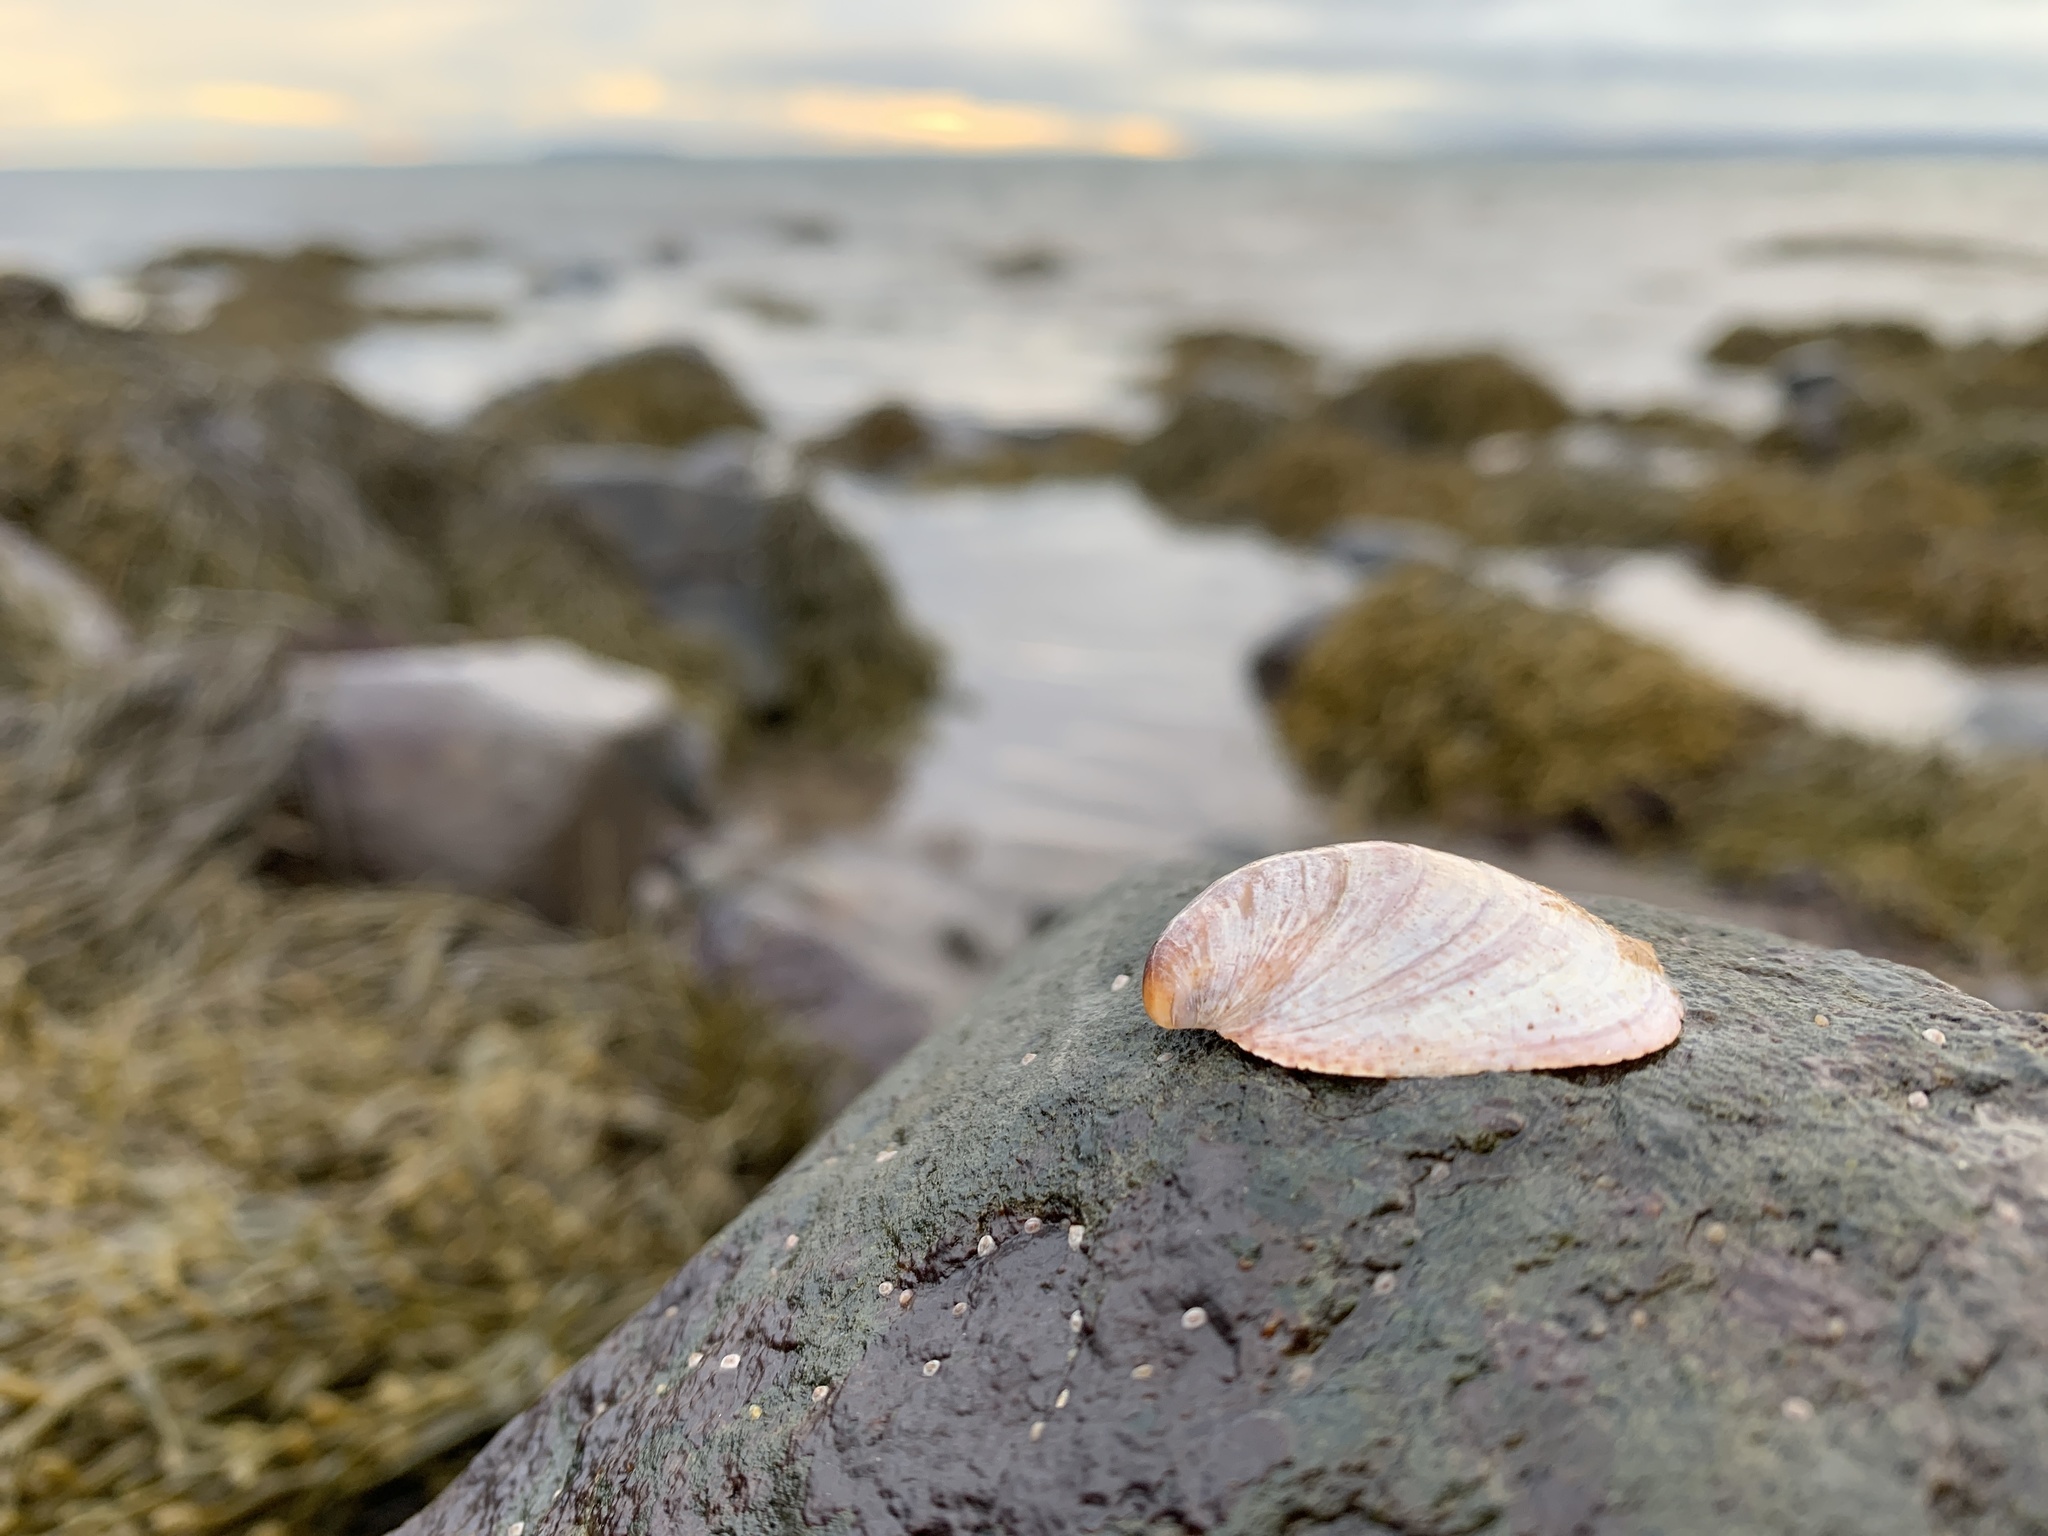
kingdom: Animalia
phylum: Mollusca
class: Gastropoda
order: Littorinimorpha
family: Calyptraeidae
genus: Crepidula
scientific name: Crepidula fornicata
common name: Slipper limpet
